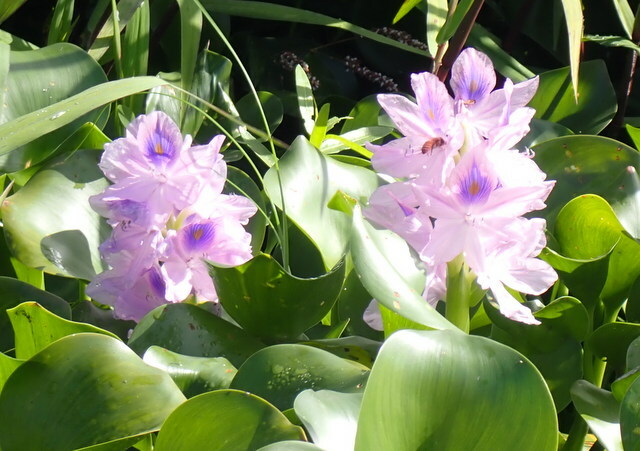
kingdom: Plantae
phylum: Tracheophyta
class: Liliopsida
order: Commelinales
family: Pontederiaceae
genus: Pontederia
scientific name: Pontederia crassipes
